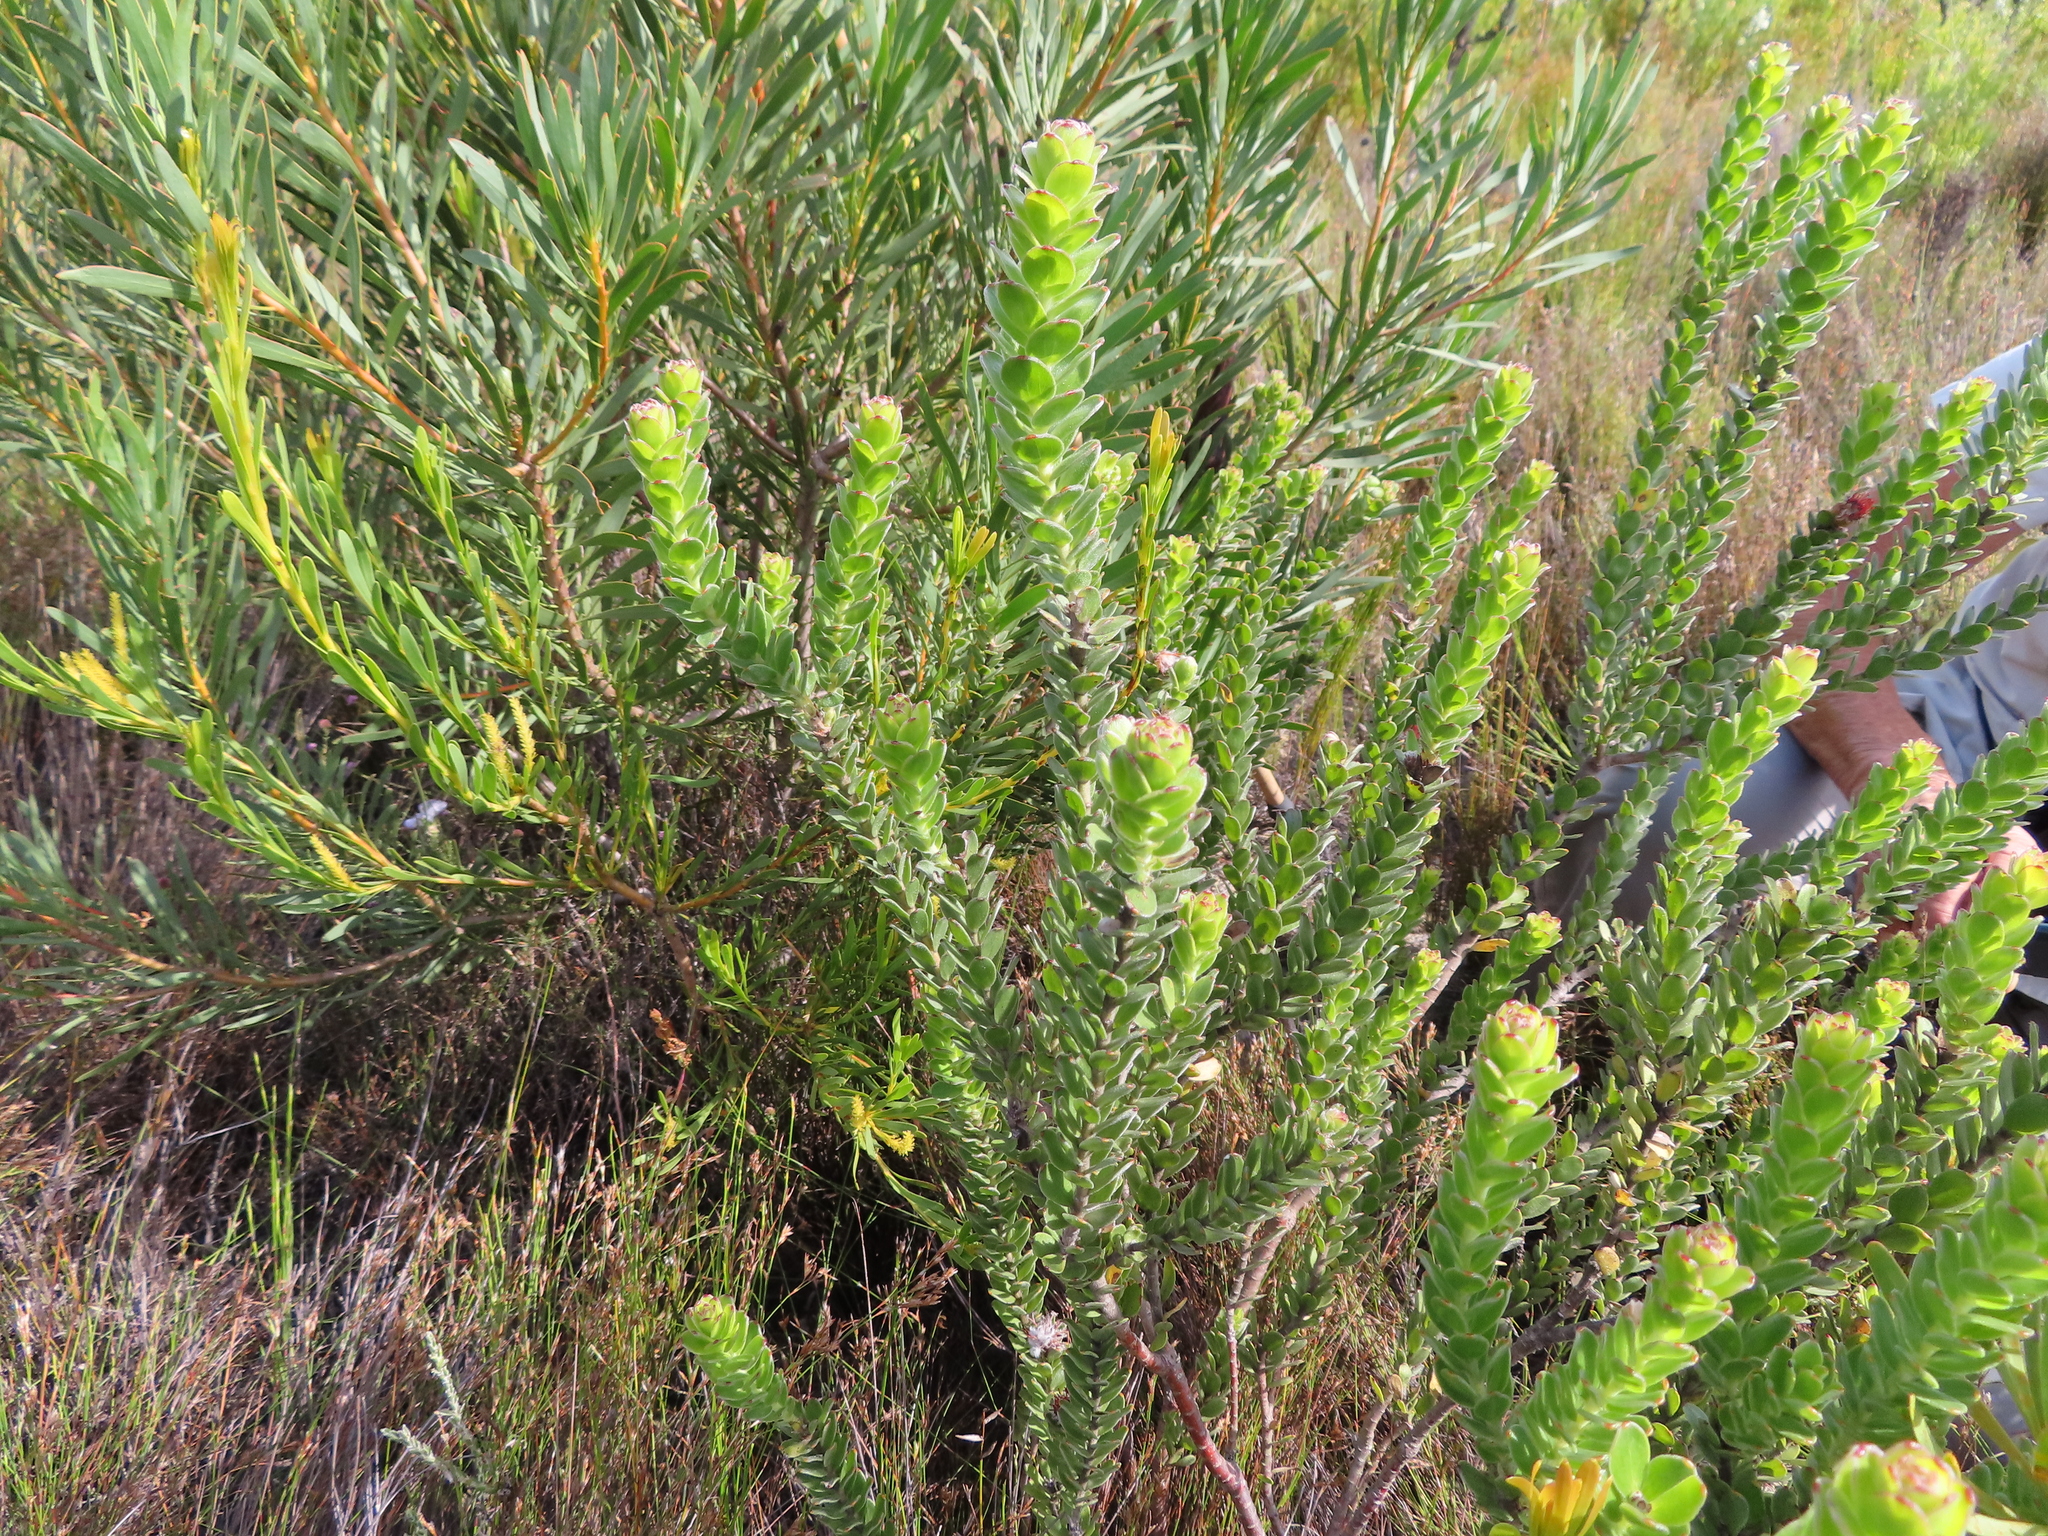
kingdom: Plantae
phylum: Tracheophyta
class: Magnoliopsida
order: Proteales
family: Proteaceae
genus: Leucospermum
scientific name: Leucospermum truncatulum
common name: Oval-leaf pincushion
